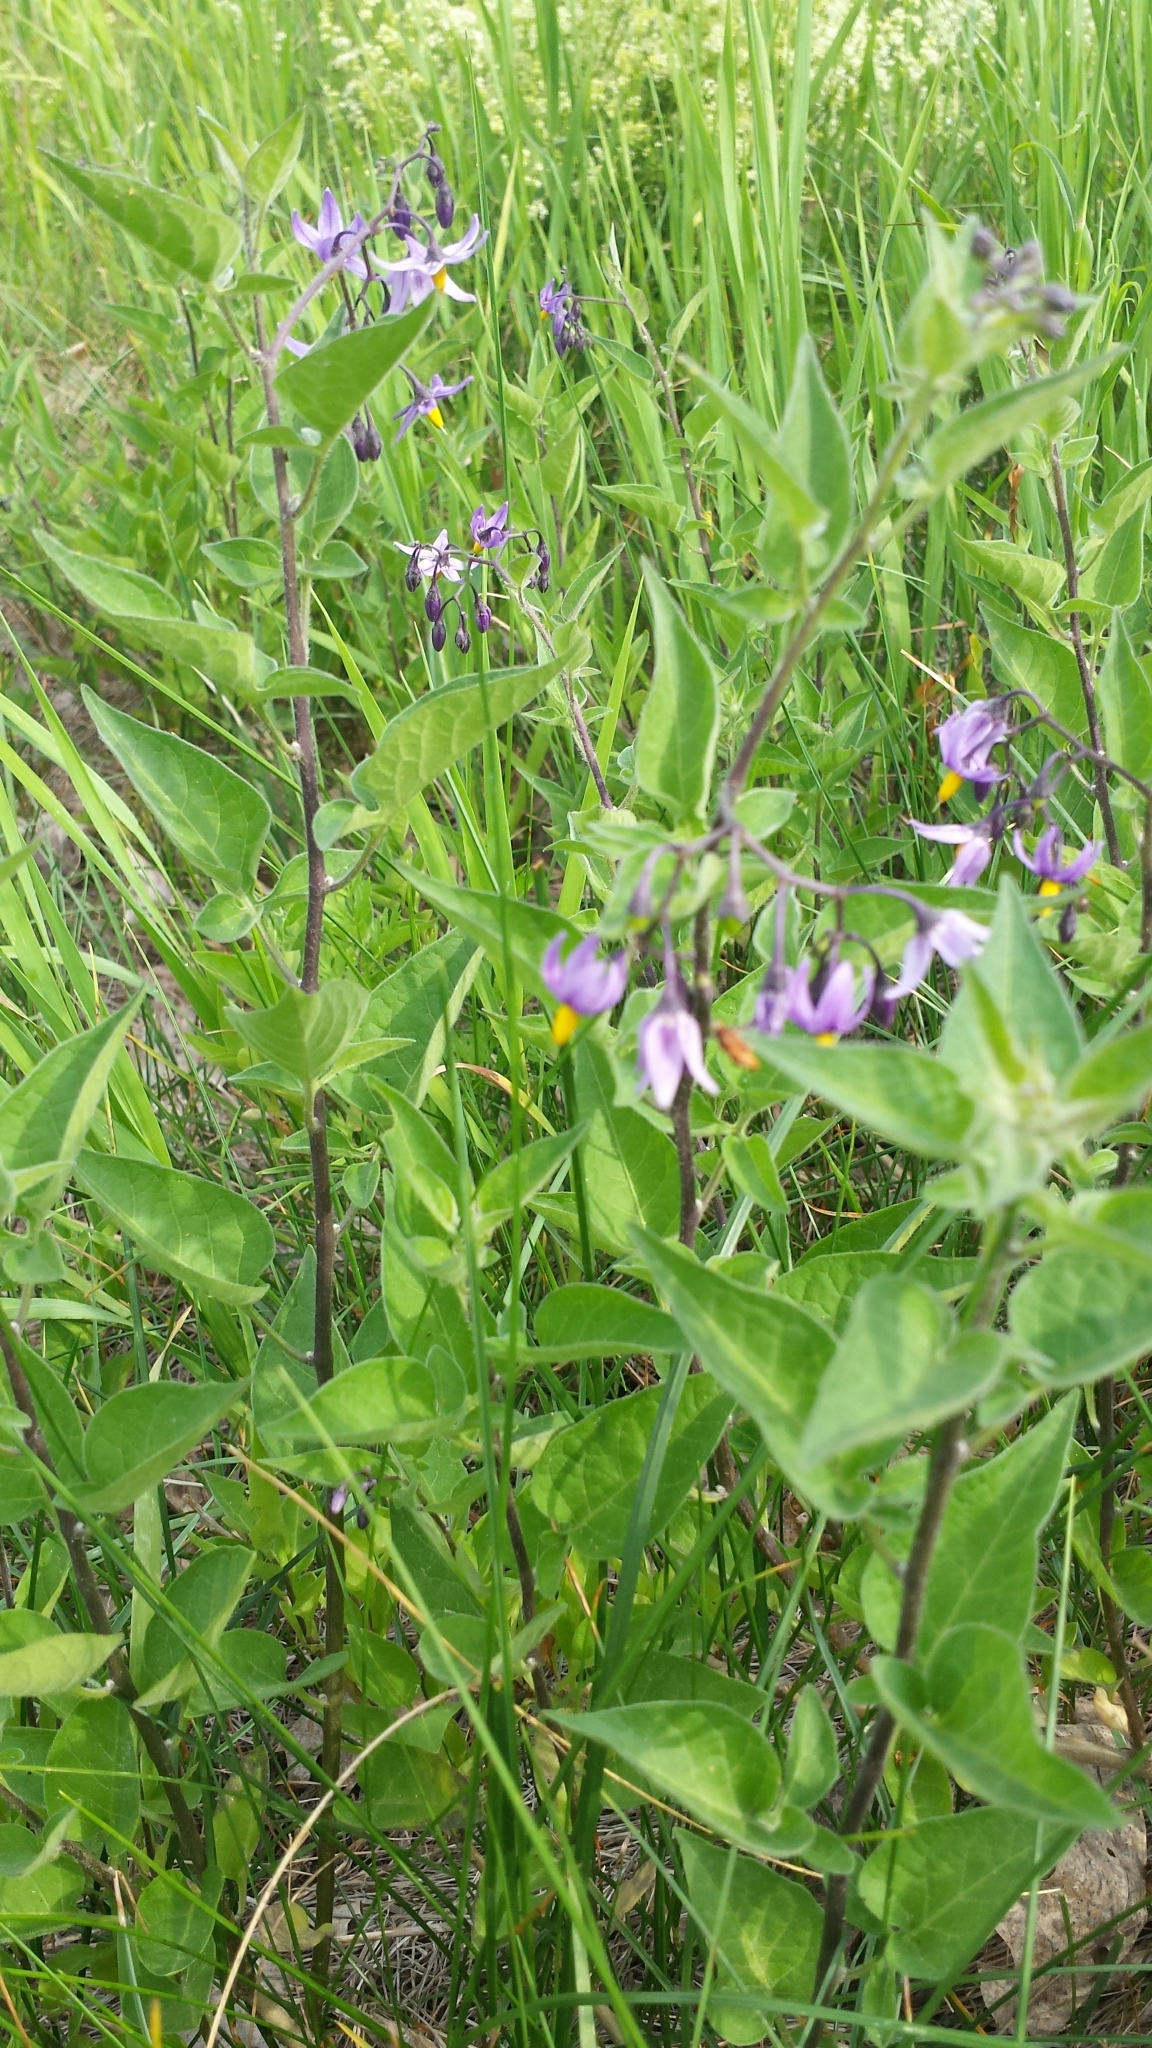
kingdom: Plantae
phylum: Tracheophyta
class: Magnoliopsida
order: Solanales
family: Solanaceae
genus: Solanum
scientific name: Solanum dulcamara
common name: Climbing nightshade
